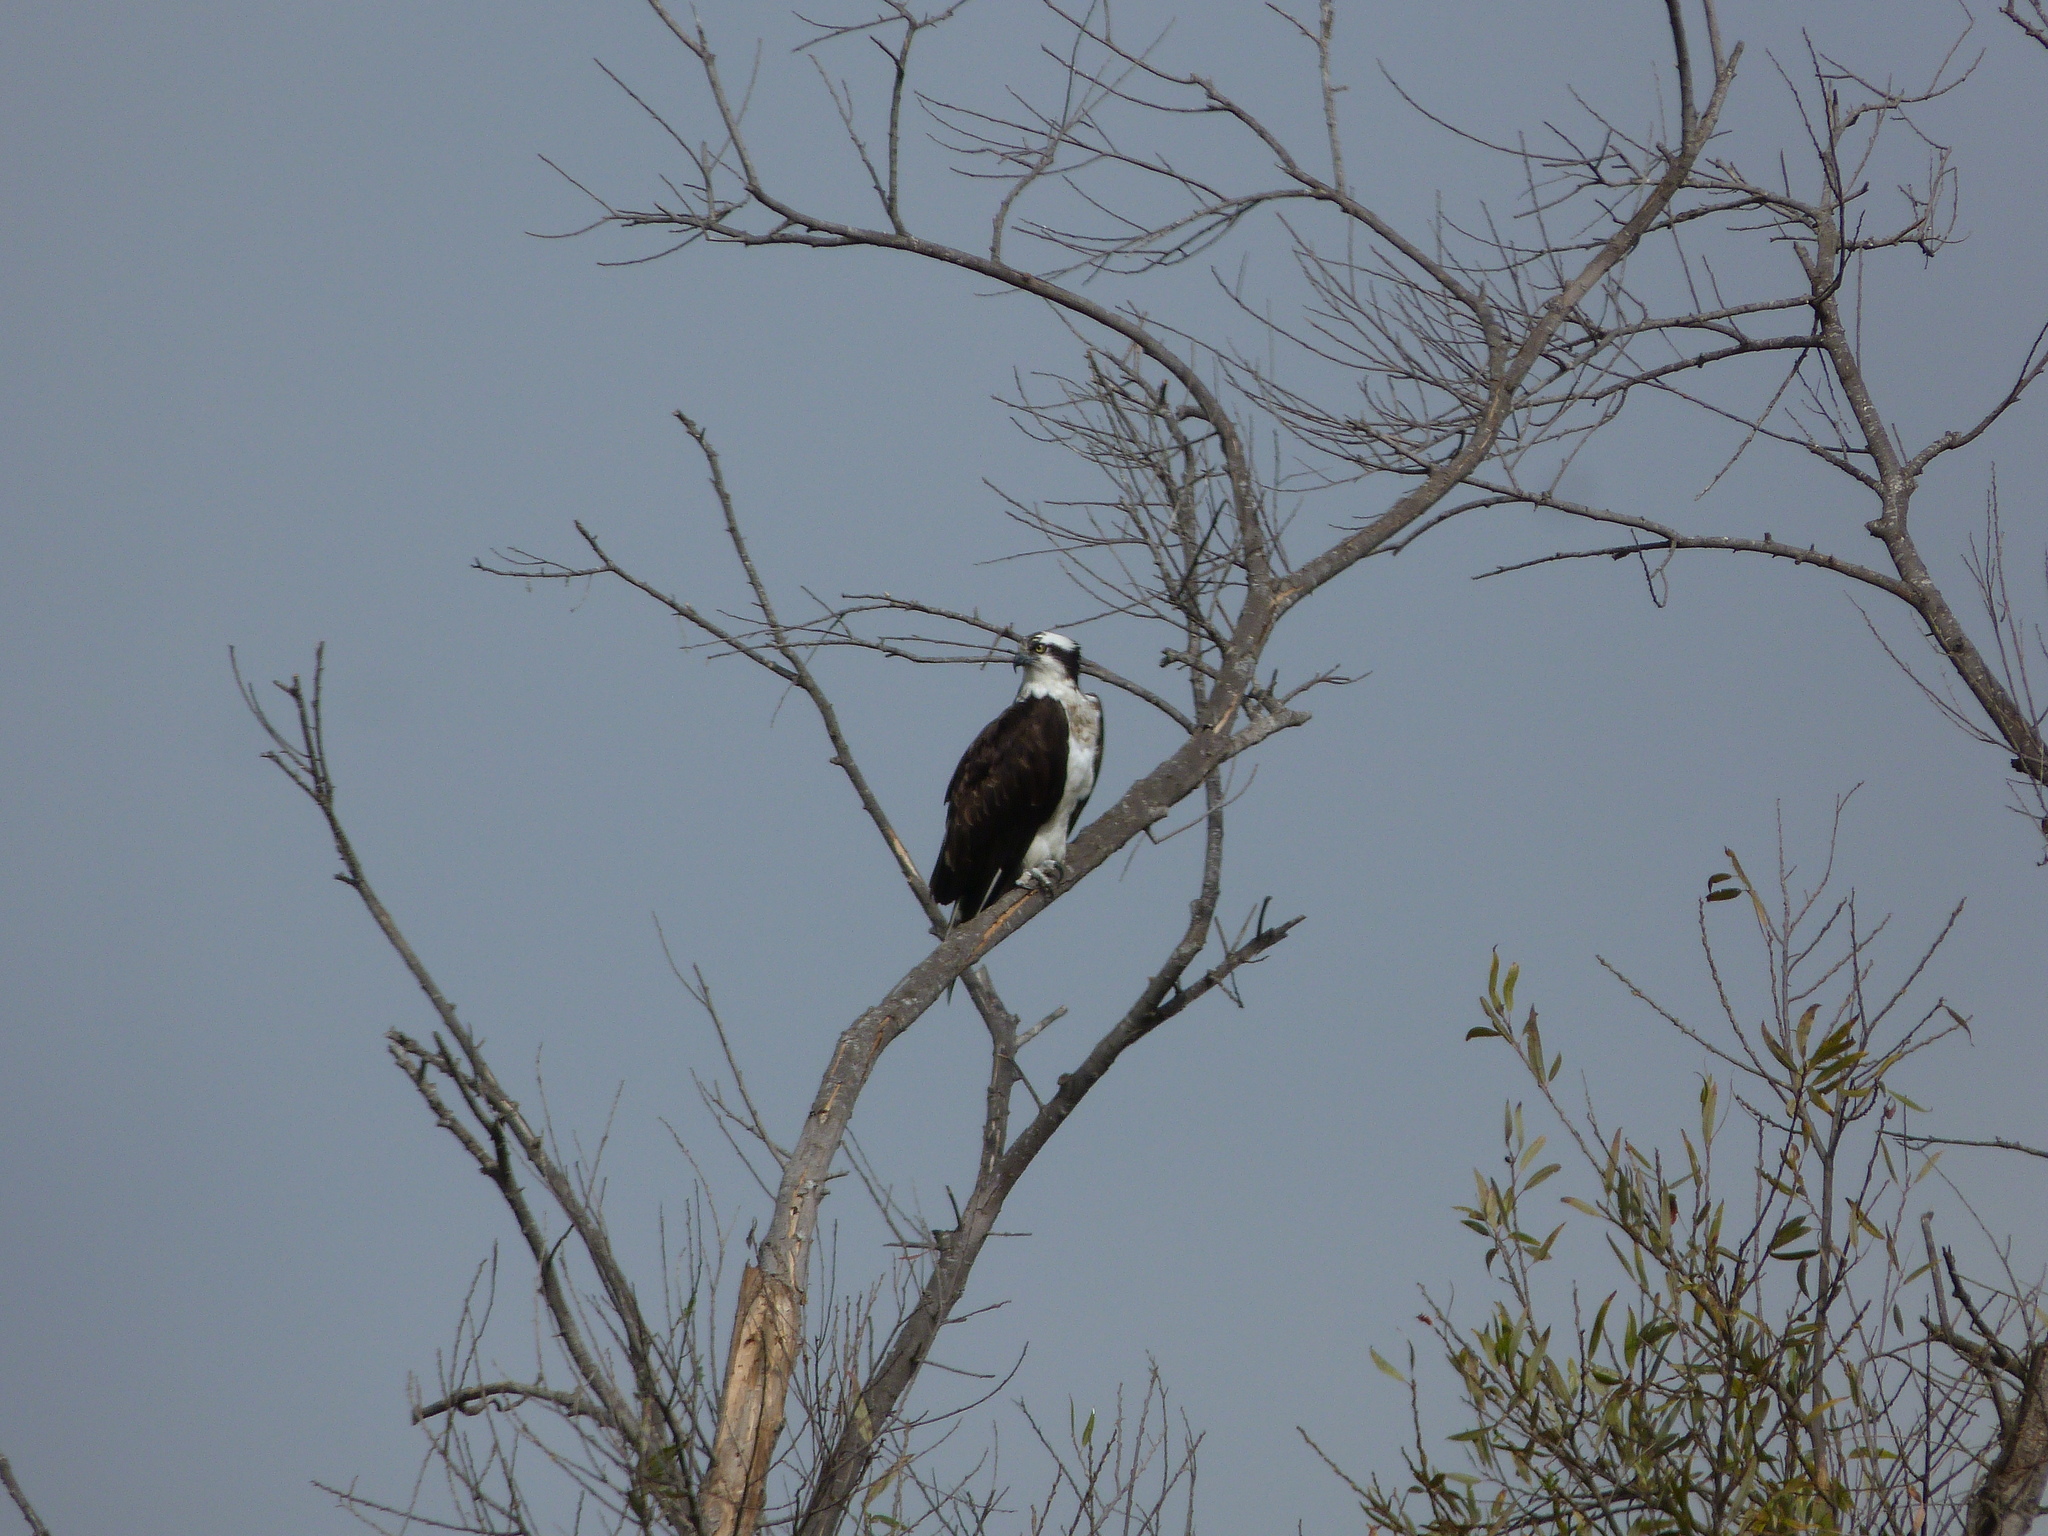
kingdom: Animalia
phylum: Chordata
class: Aves
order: Accipitriformes
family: Pandionidae
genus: Pandion
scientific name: Pandion haliaetus
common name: Osprey
